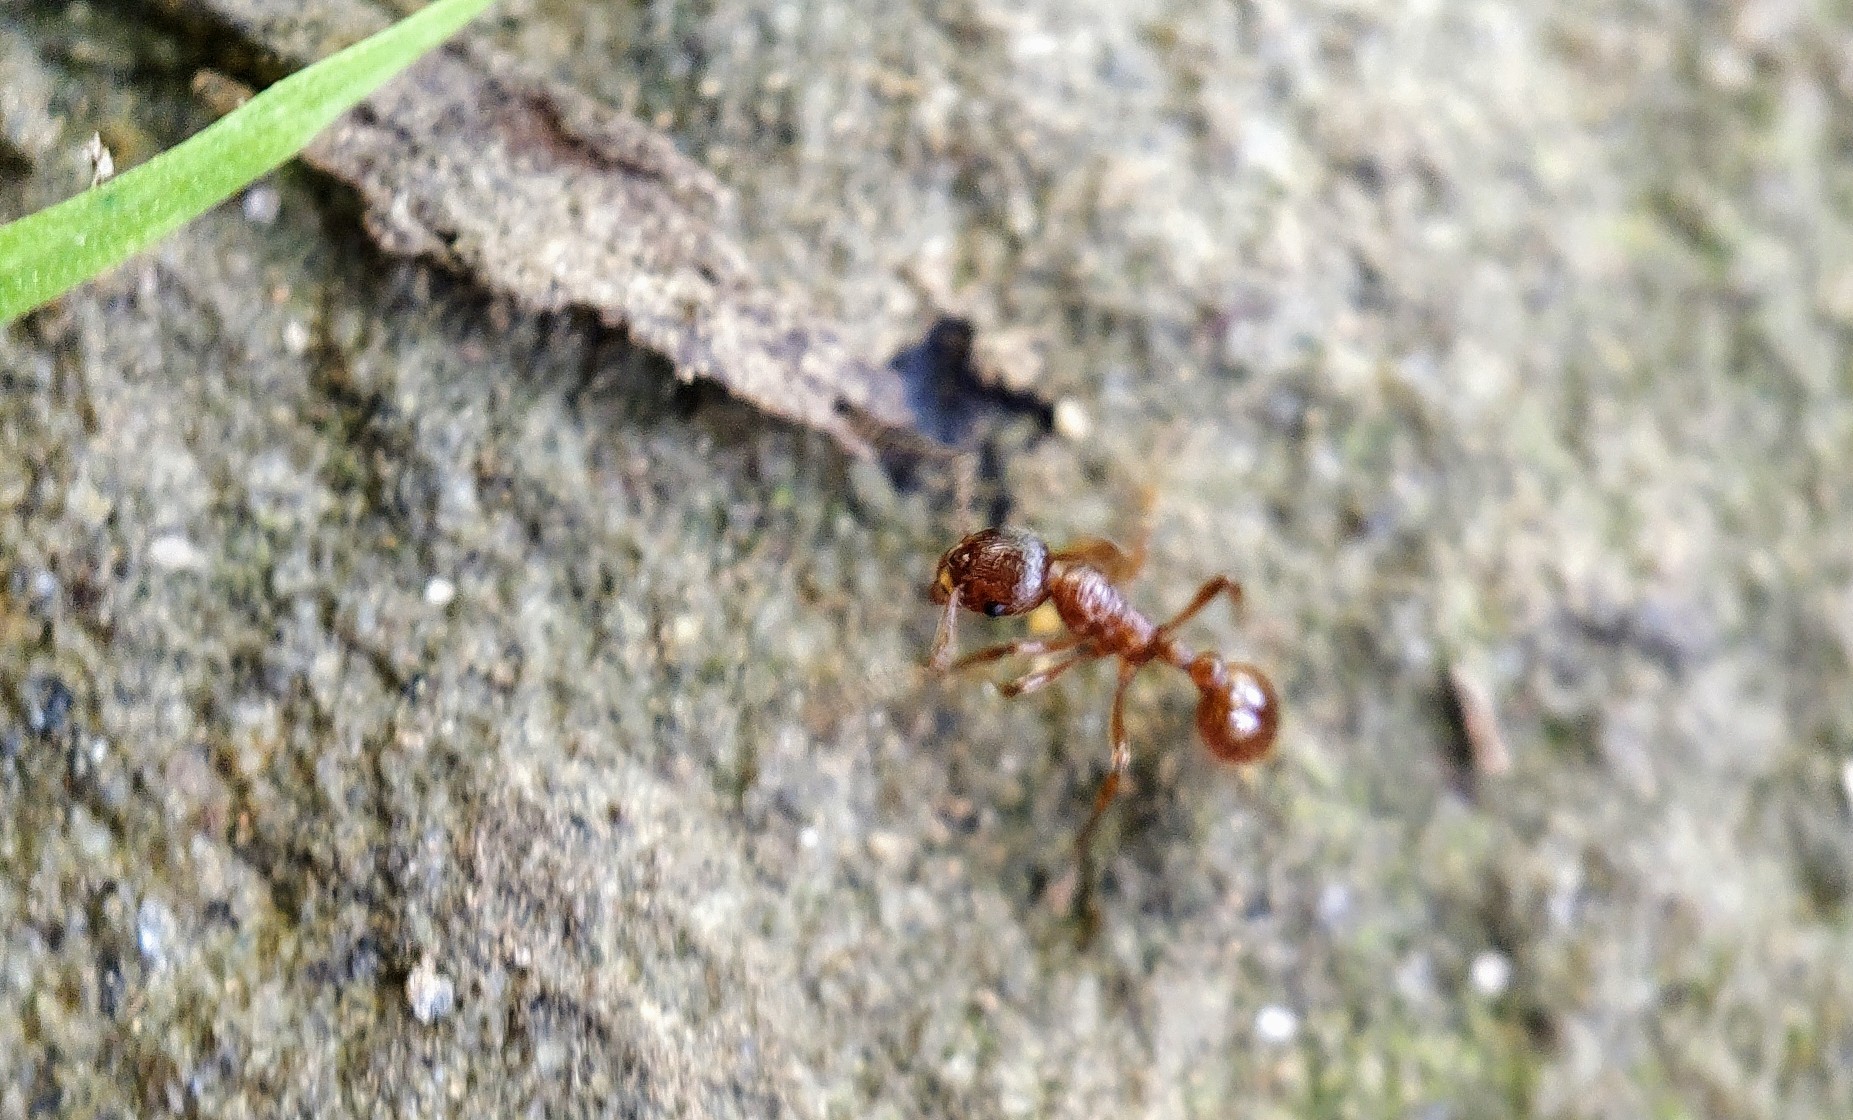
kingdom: Animalia
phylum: Arthropoda
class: Insecta
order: Hymenoptera
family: Formicidae
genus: Myrmica
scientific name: Myrmica rubra
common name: European fire ant
